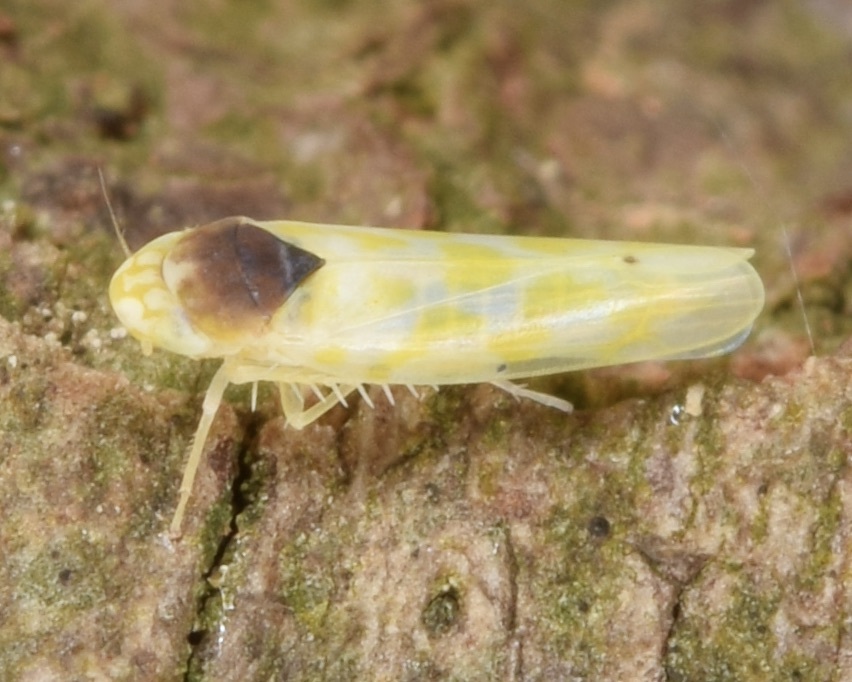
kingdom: Animalia
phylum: Arthropoda
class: Insecta
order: Hemiptera
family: Cicadellidae
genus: Eratoneura
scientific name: Eratoneura ardens
